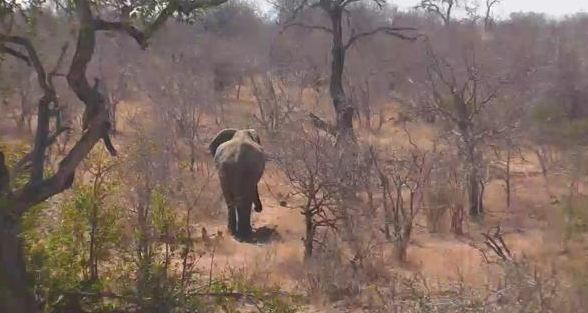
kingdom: Animalia
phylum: Chordata
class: Mammalia
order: Proboscidea
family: Elephantidae
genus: Loxodonta
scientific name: Loxodonta africana
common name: African elephant
